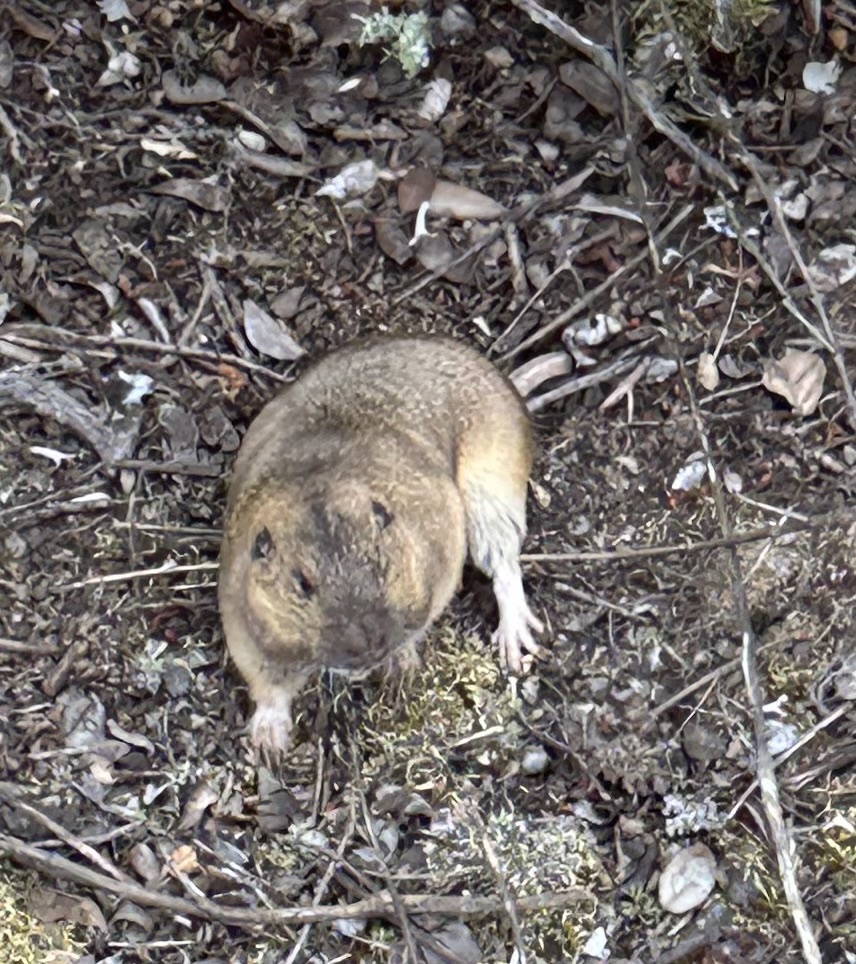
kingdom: Animalia
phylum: Chordata
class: Mammalia
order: Rodentia
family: Geomyidae
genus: Thomomys
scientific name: Thomomys bottae
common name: Botta's pocket gopher
